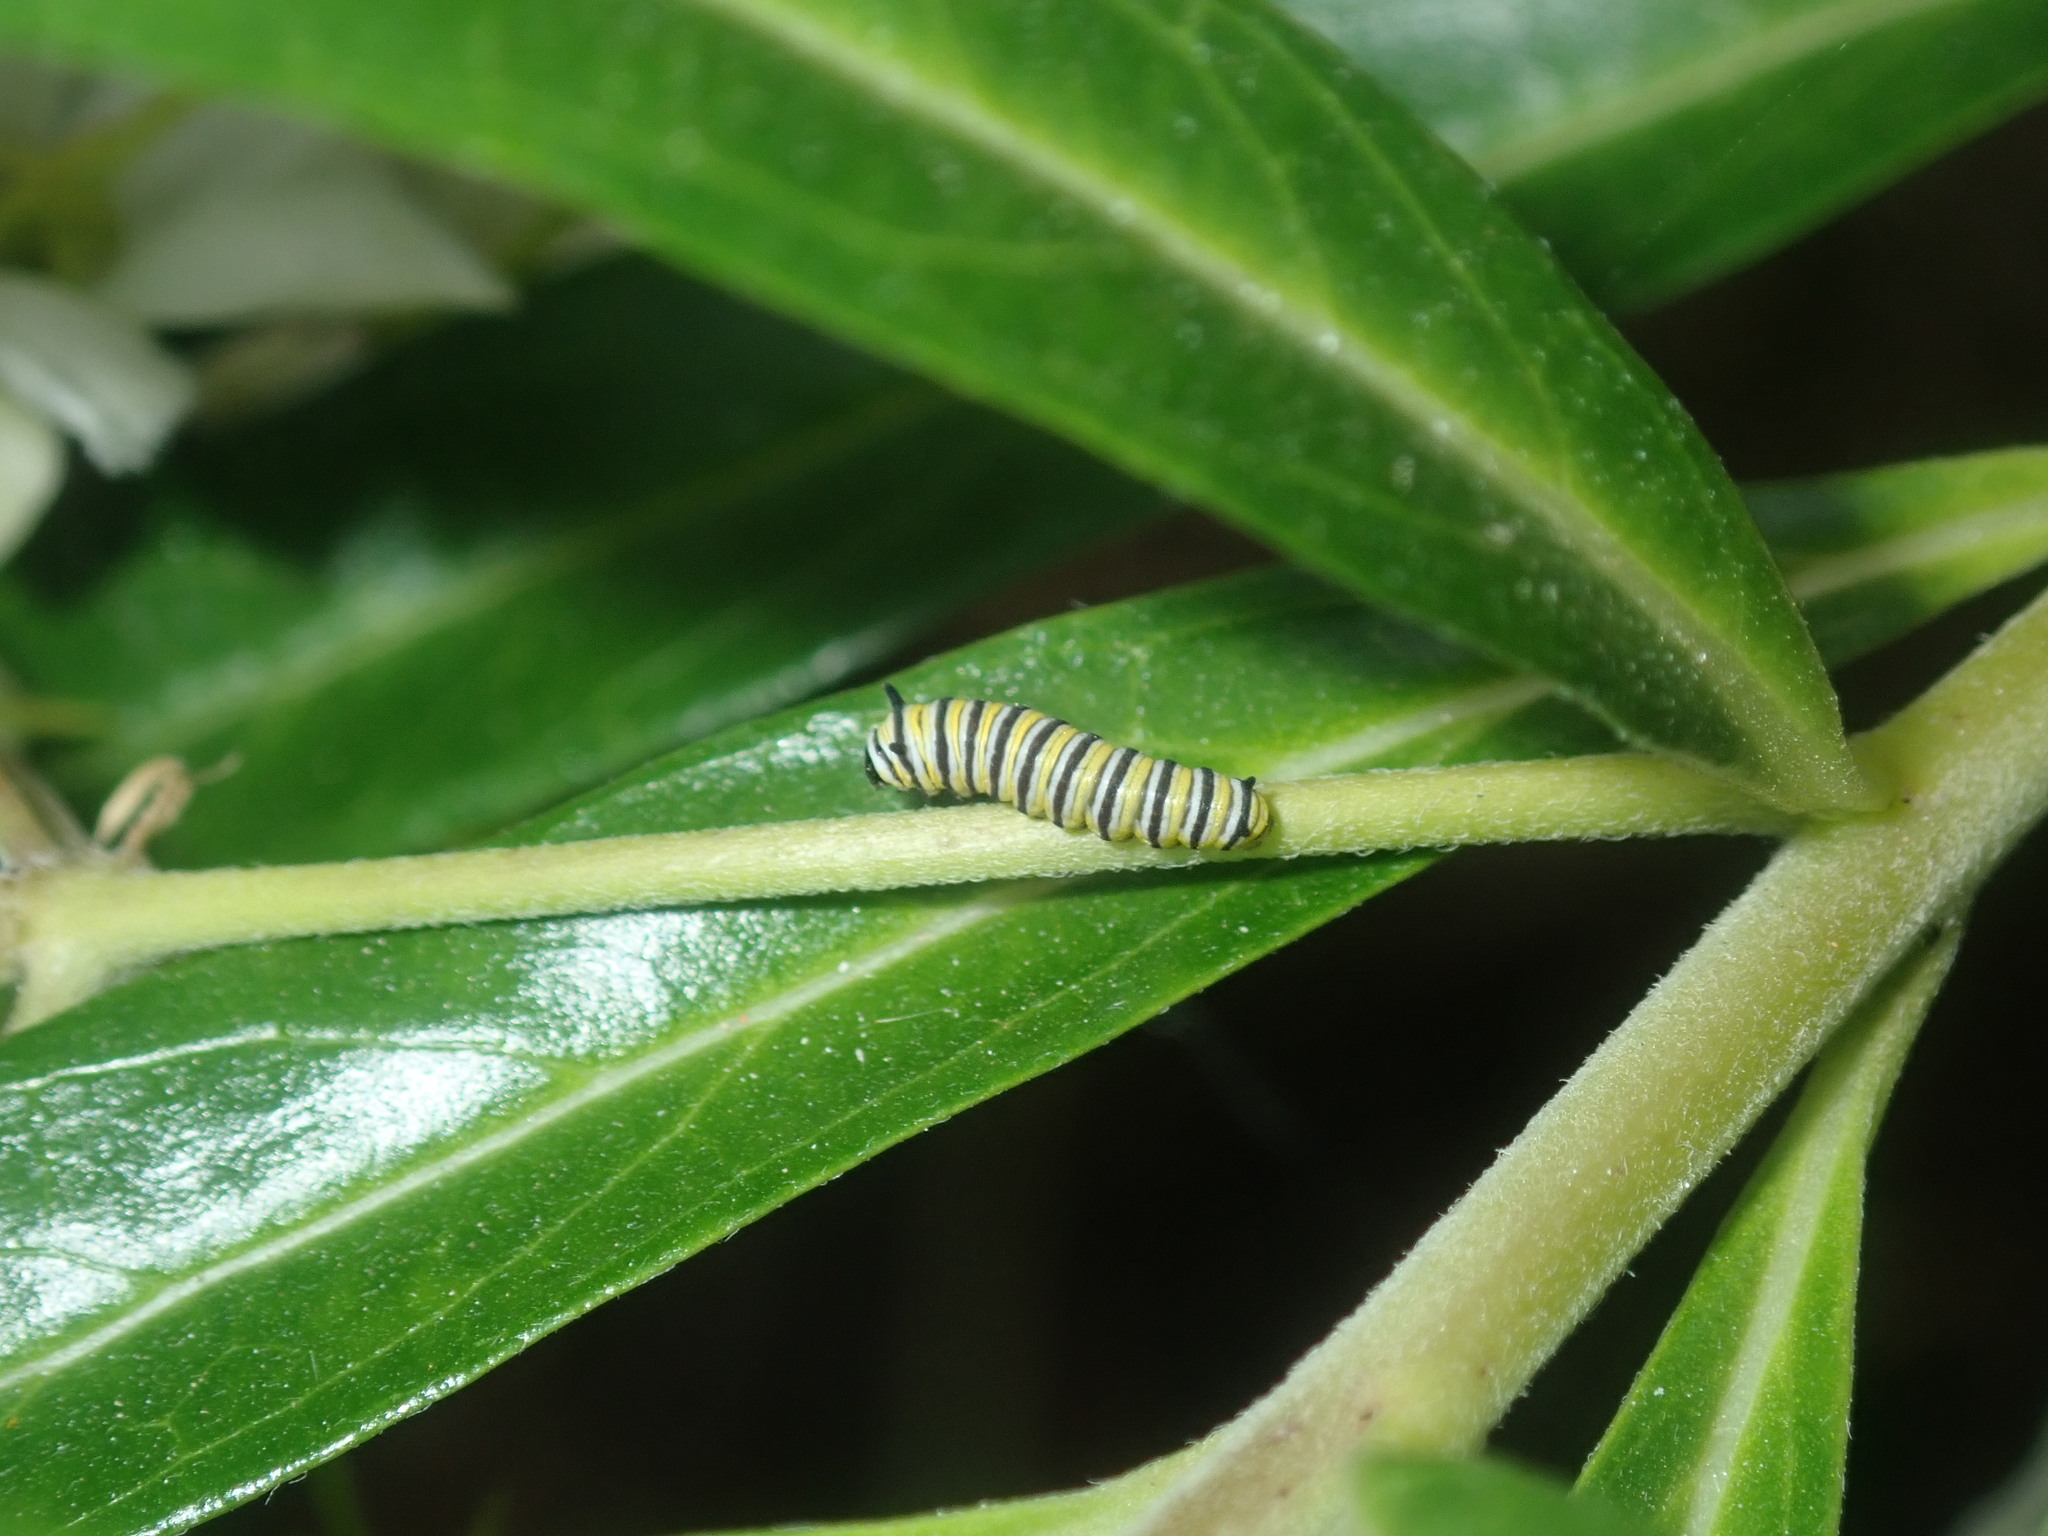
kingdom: Animalia
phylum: Arthropoda
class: Insecta
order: Lepidoptera
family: Nymphalidae
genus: Danaus
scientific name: Danaus plexippus
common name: Monarch
